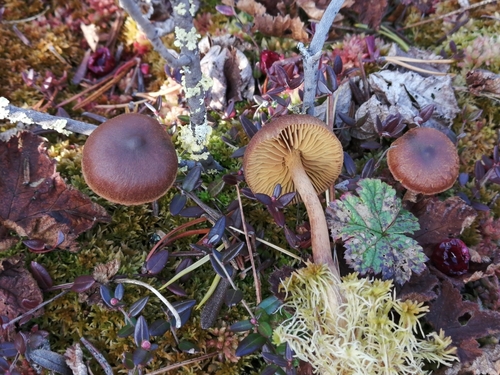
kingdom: Fungi
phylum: Basidiomycota
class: Agaricomycetes
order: Agaricales
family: Cortinariaceae
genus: Cortinarius
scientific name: Cortinarius tubarius
